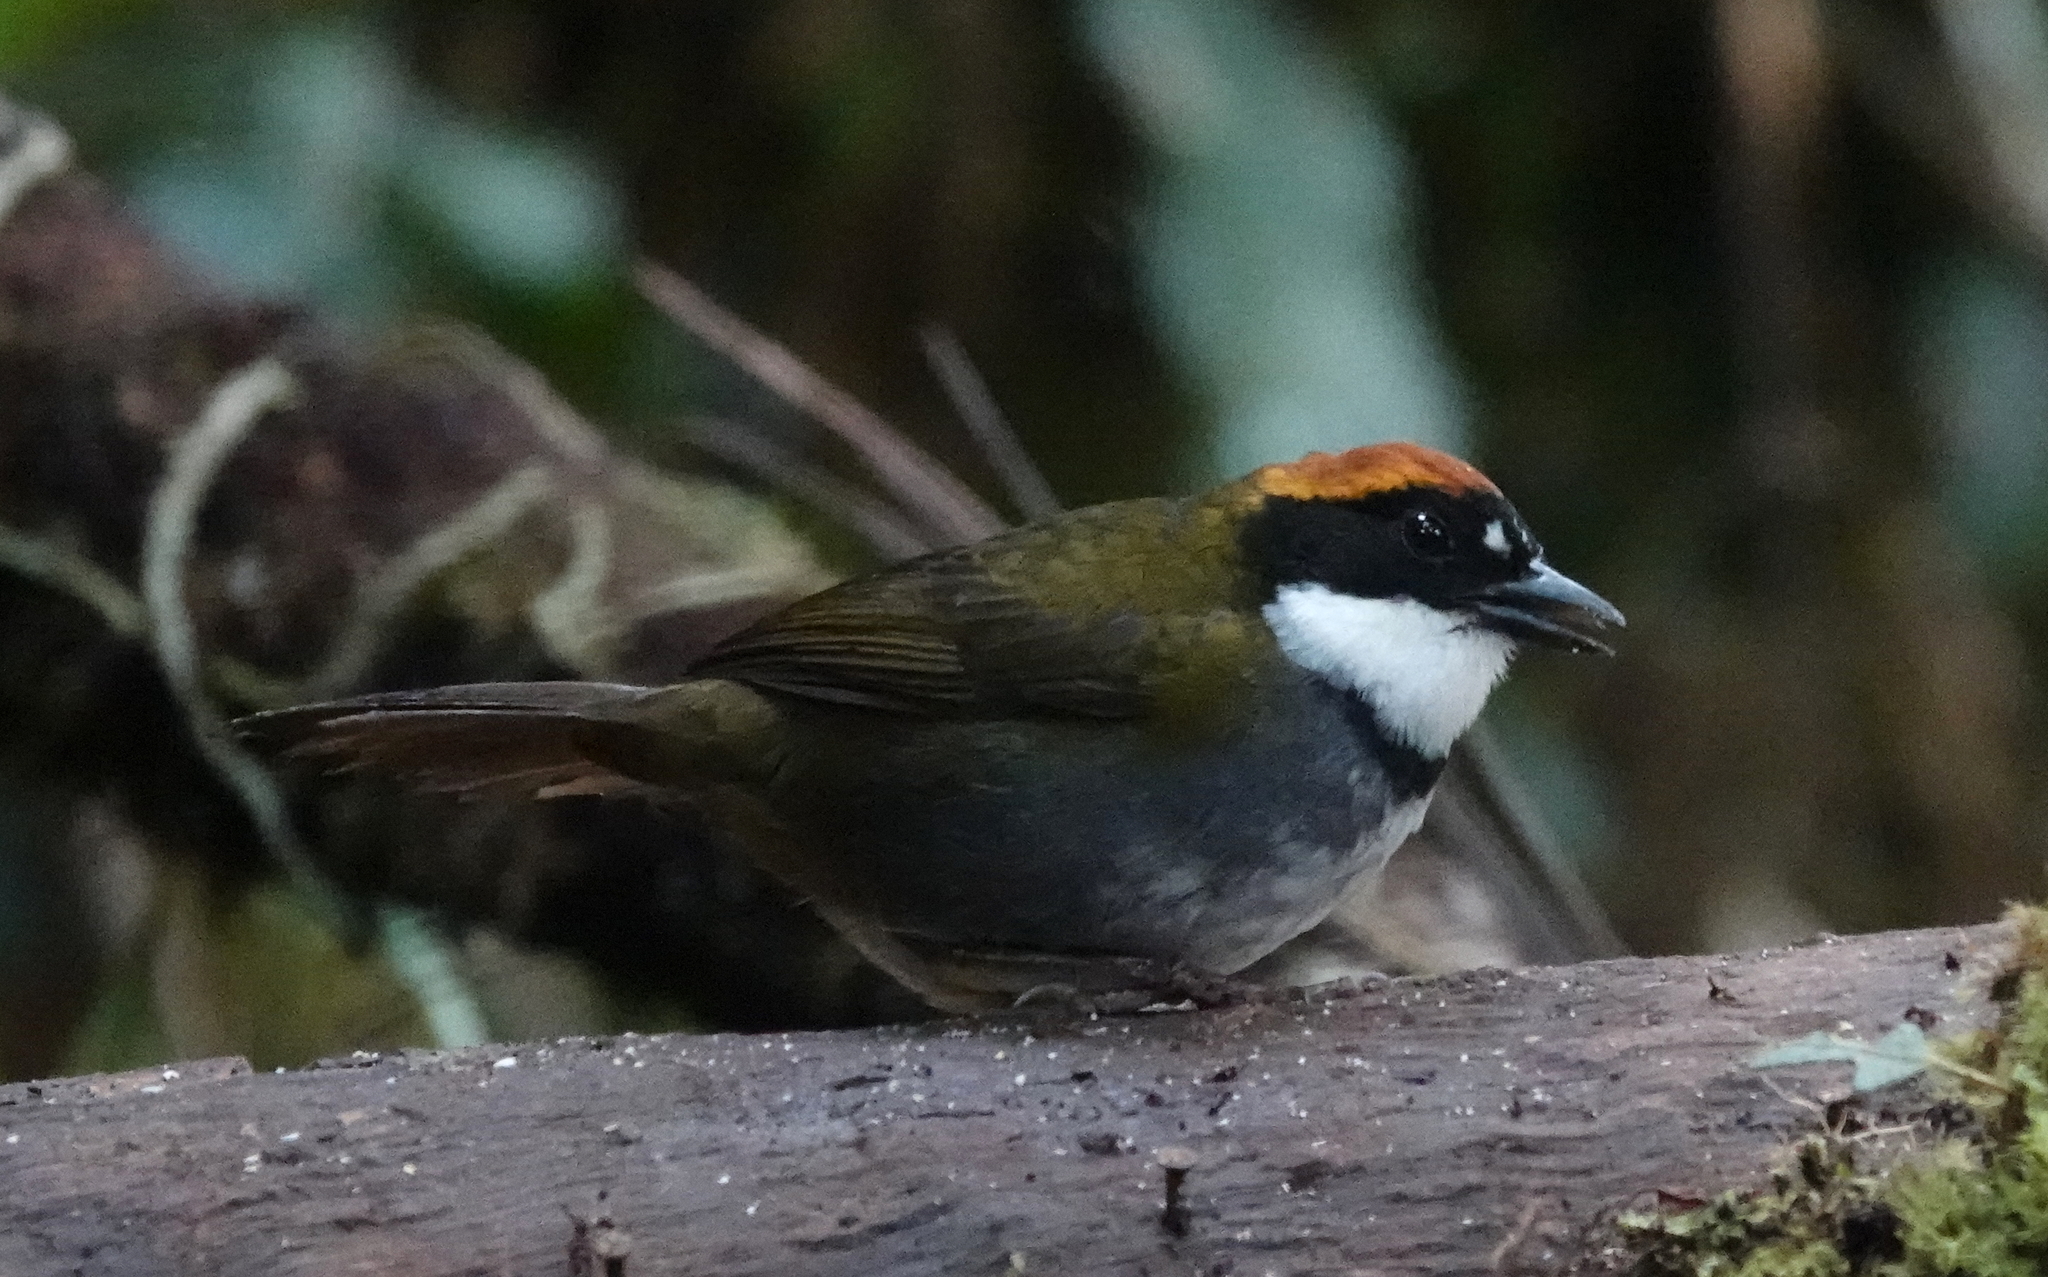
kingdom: Animalia
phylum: Chordata
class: Aves
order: Passeriformes
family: Passerellidae
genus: Arremon
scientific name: Arremon brunneinucha
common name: Chestnut-capped brushfinch
